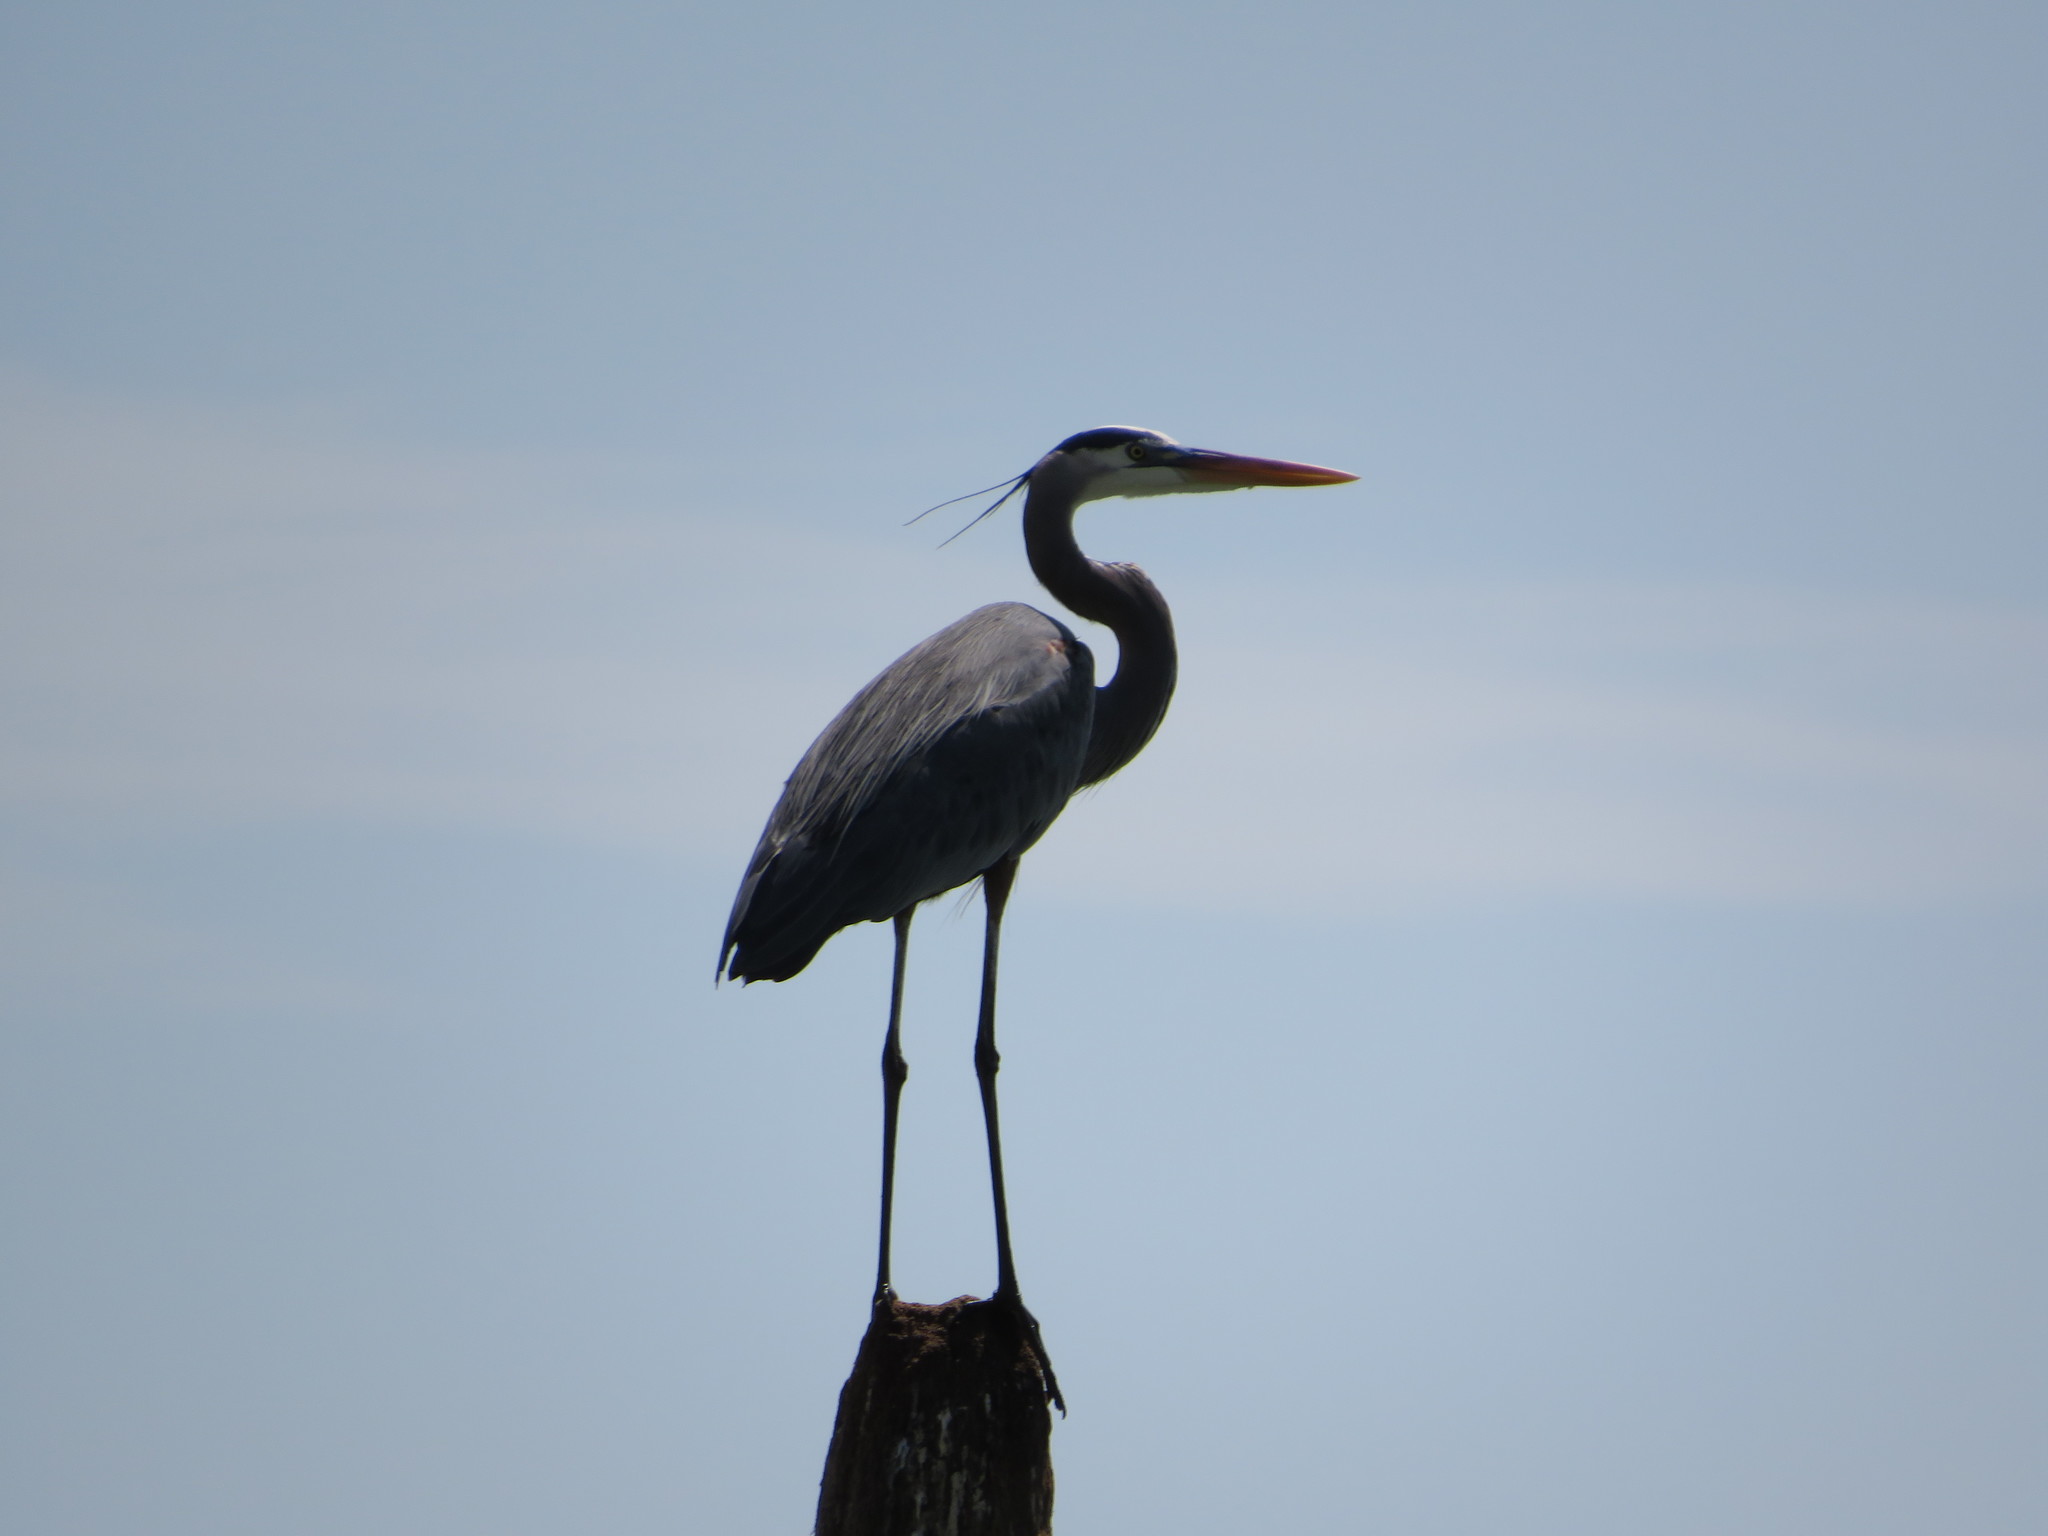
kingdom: Animalia
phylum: Chordata
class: Aves
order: Pelecaniformes
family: Ardeidae
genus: Ardea
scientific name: Ardea herodias
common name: Great blue heron
